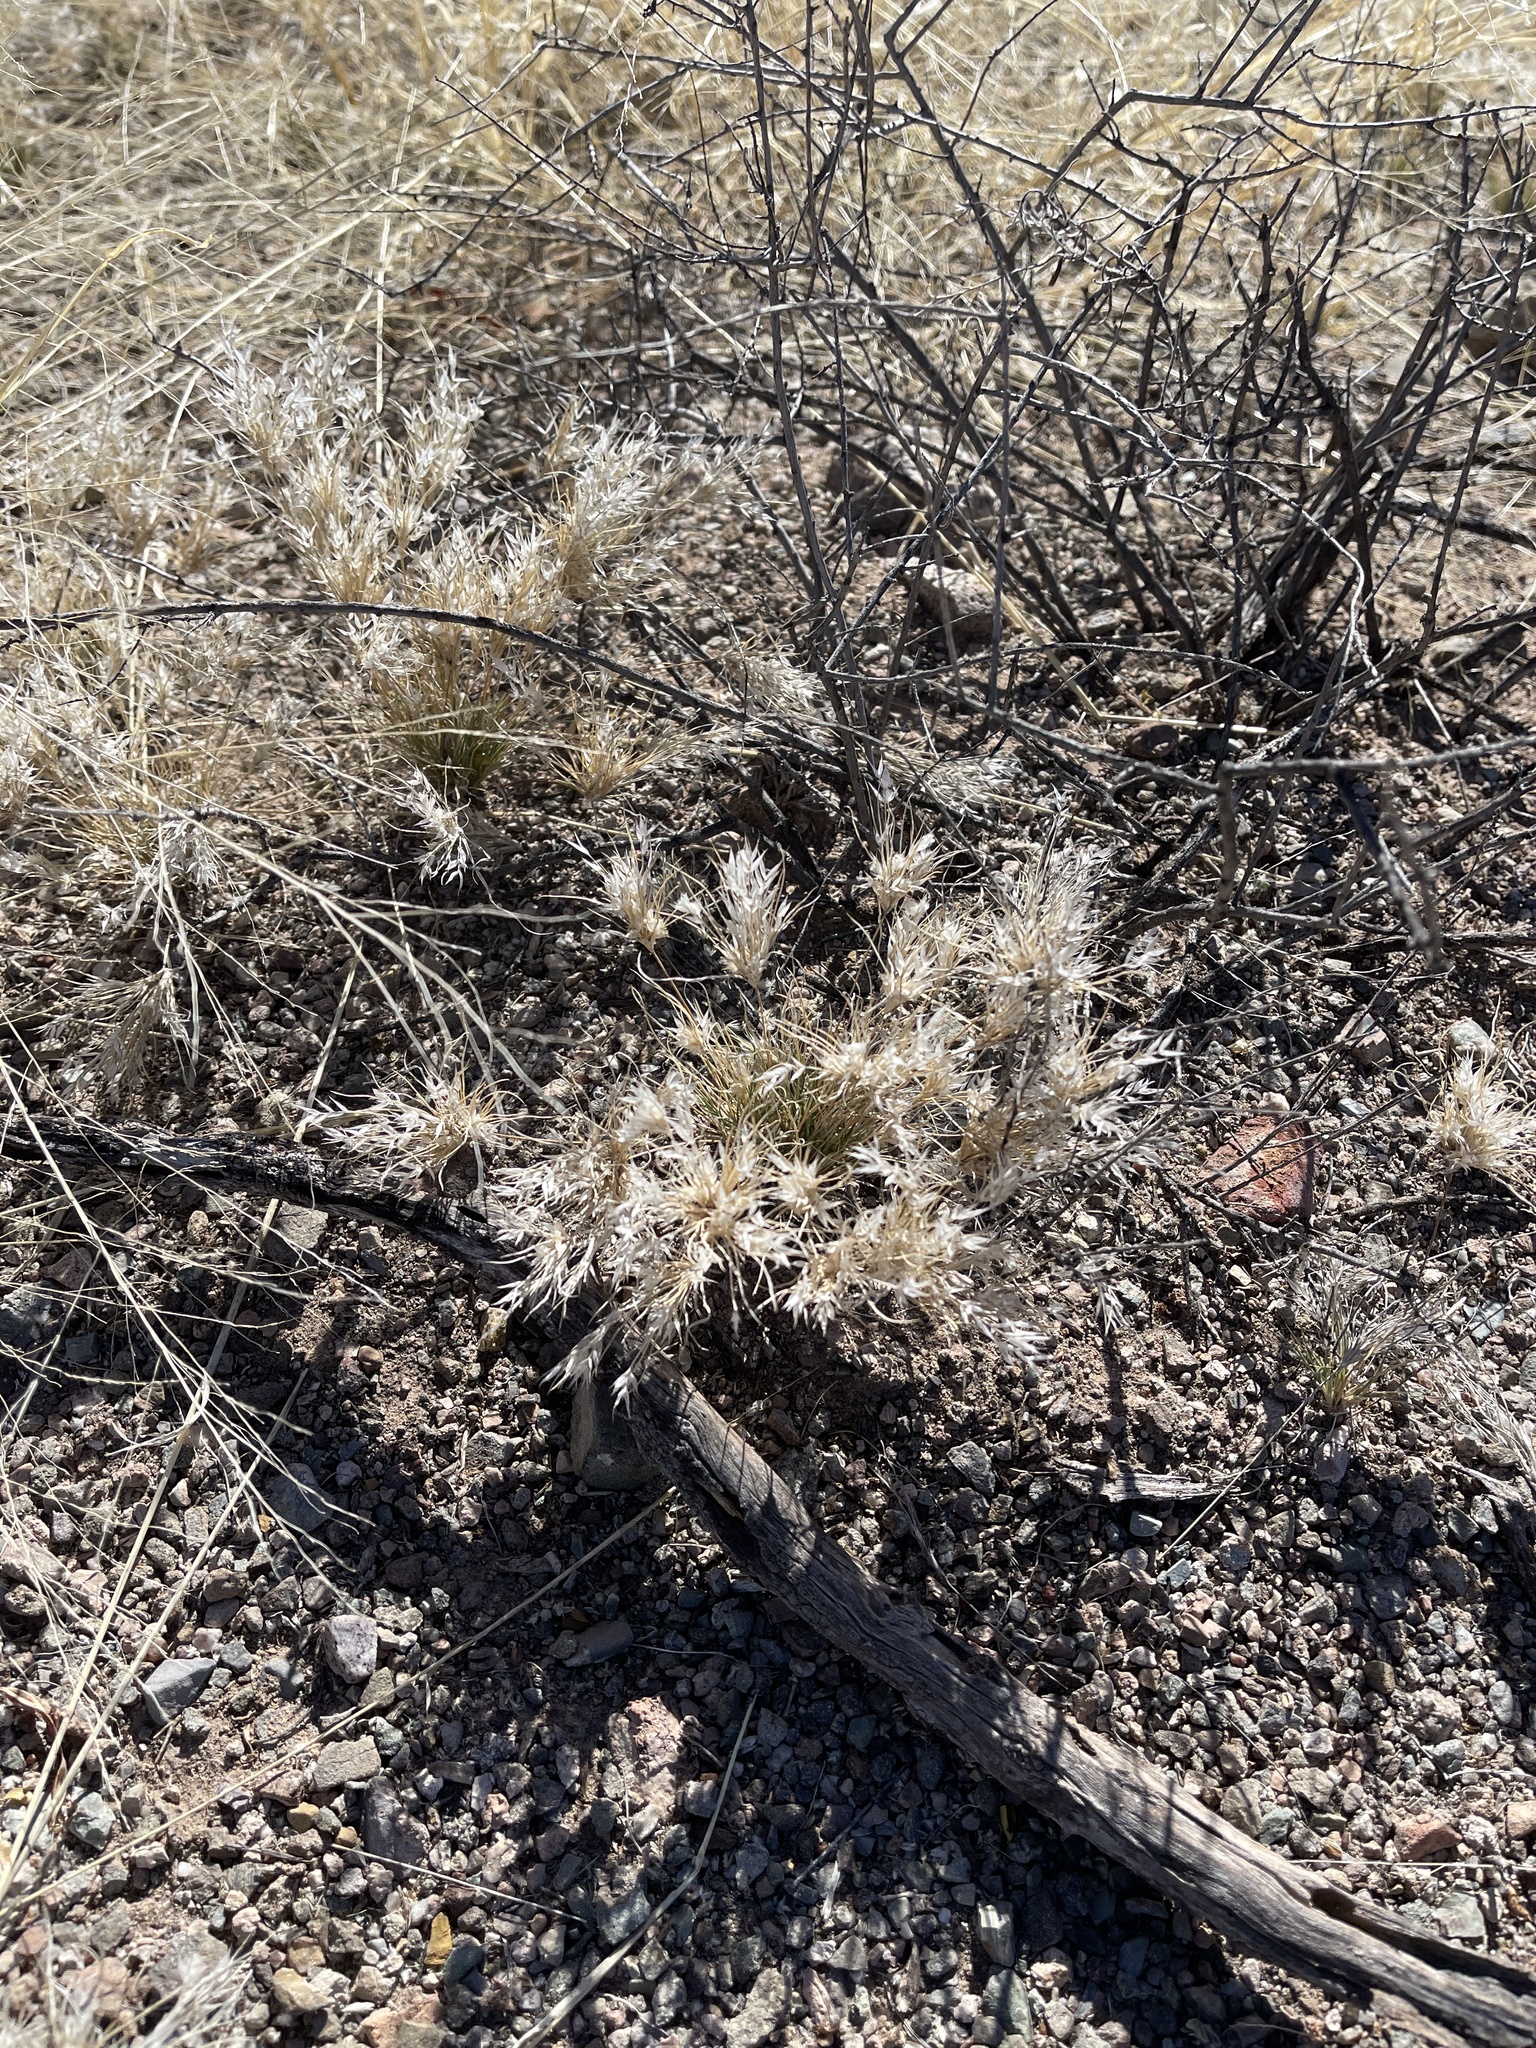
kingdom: Plantae
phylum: Tracheophyta
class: Liliopsida
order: Poales
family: Poaceae
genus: Dasyochloa
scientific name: Dasyochloa pulchella
